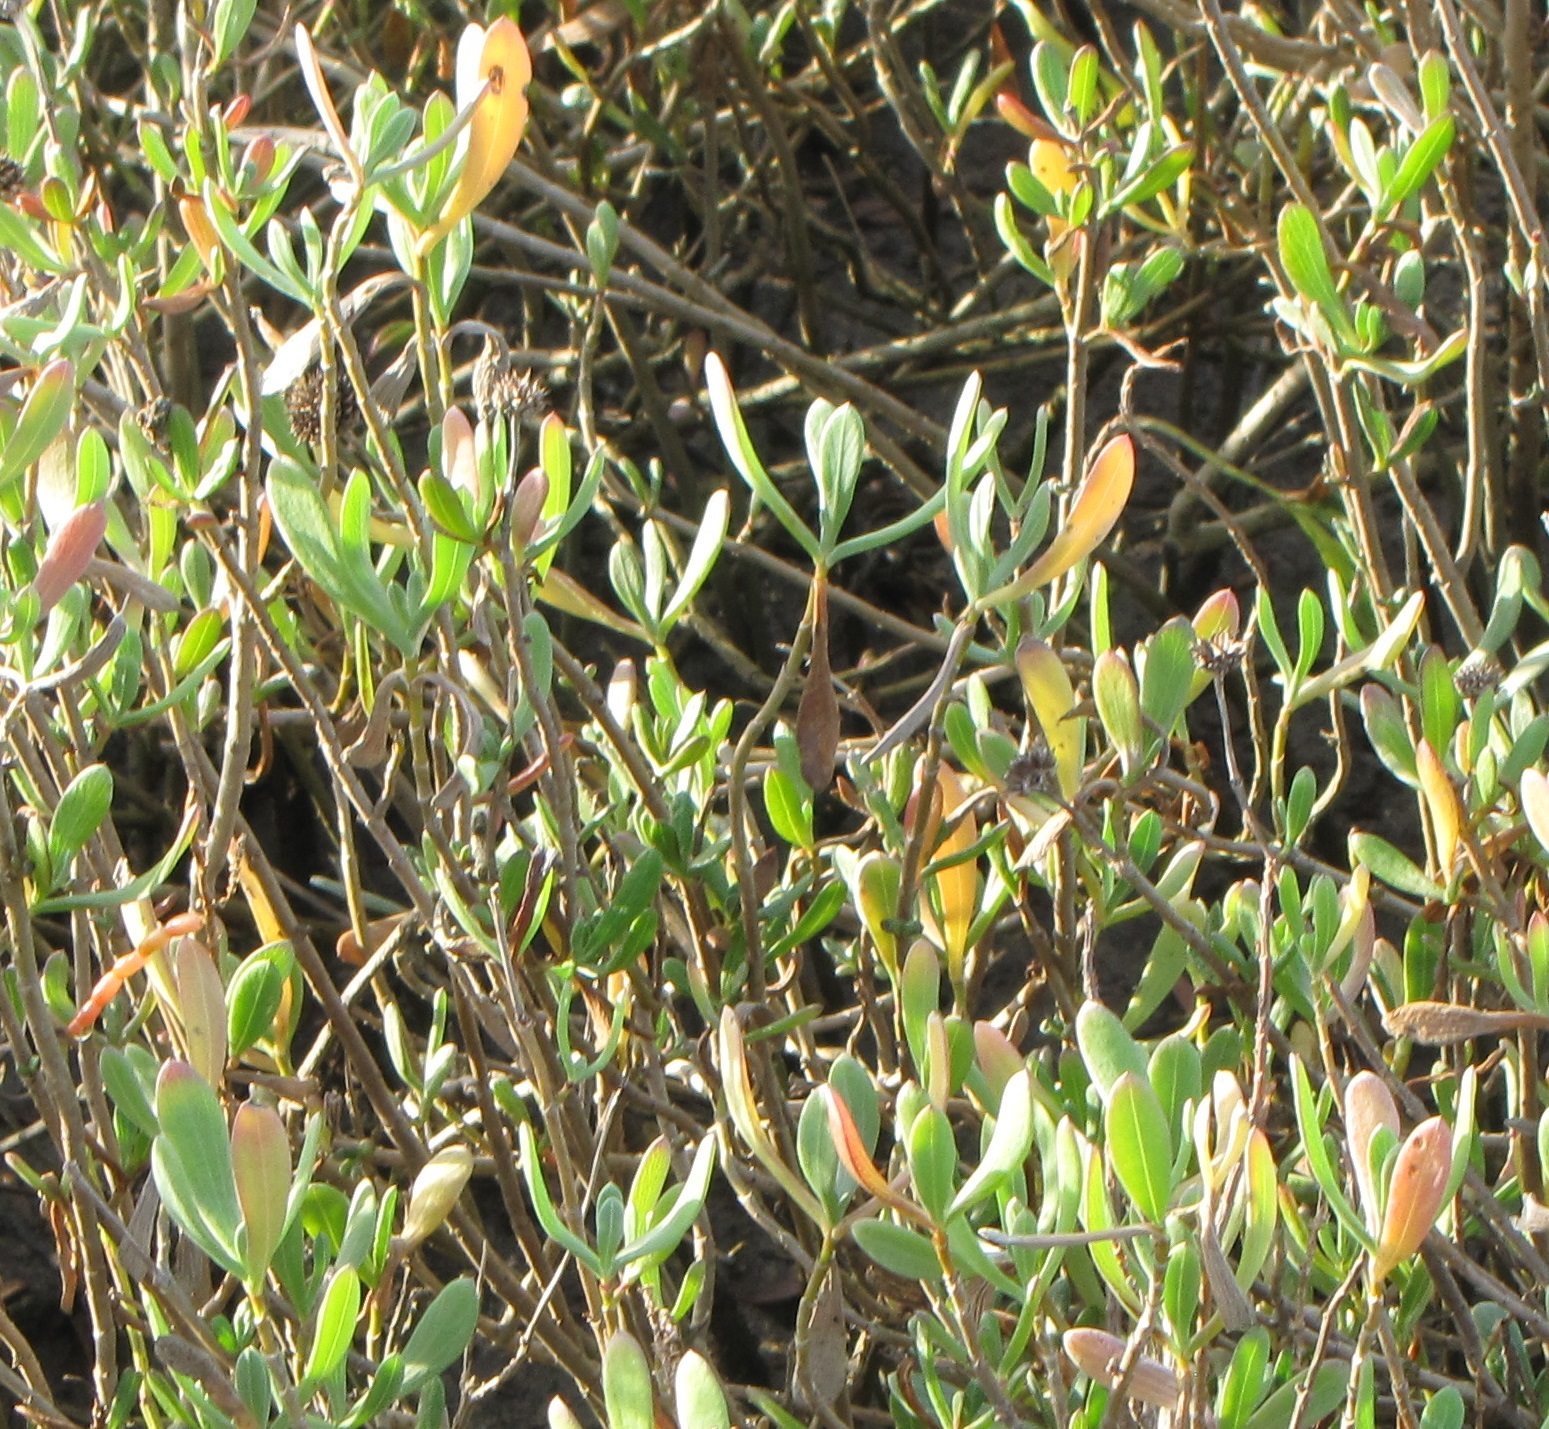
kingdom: Plantae
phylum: Tracheophyta
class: Magnoliopsida
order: Asterales
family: Asteraceae
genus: Borrichia
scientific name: Borrichia frutescens
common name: Sea oxeye
